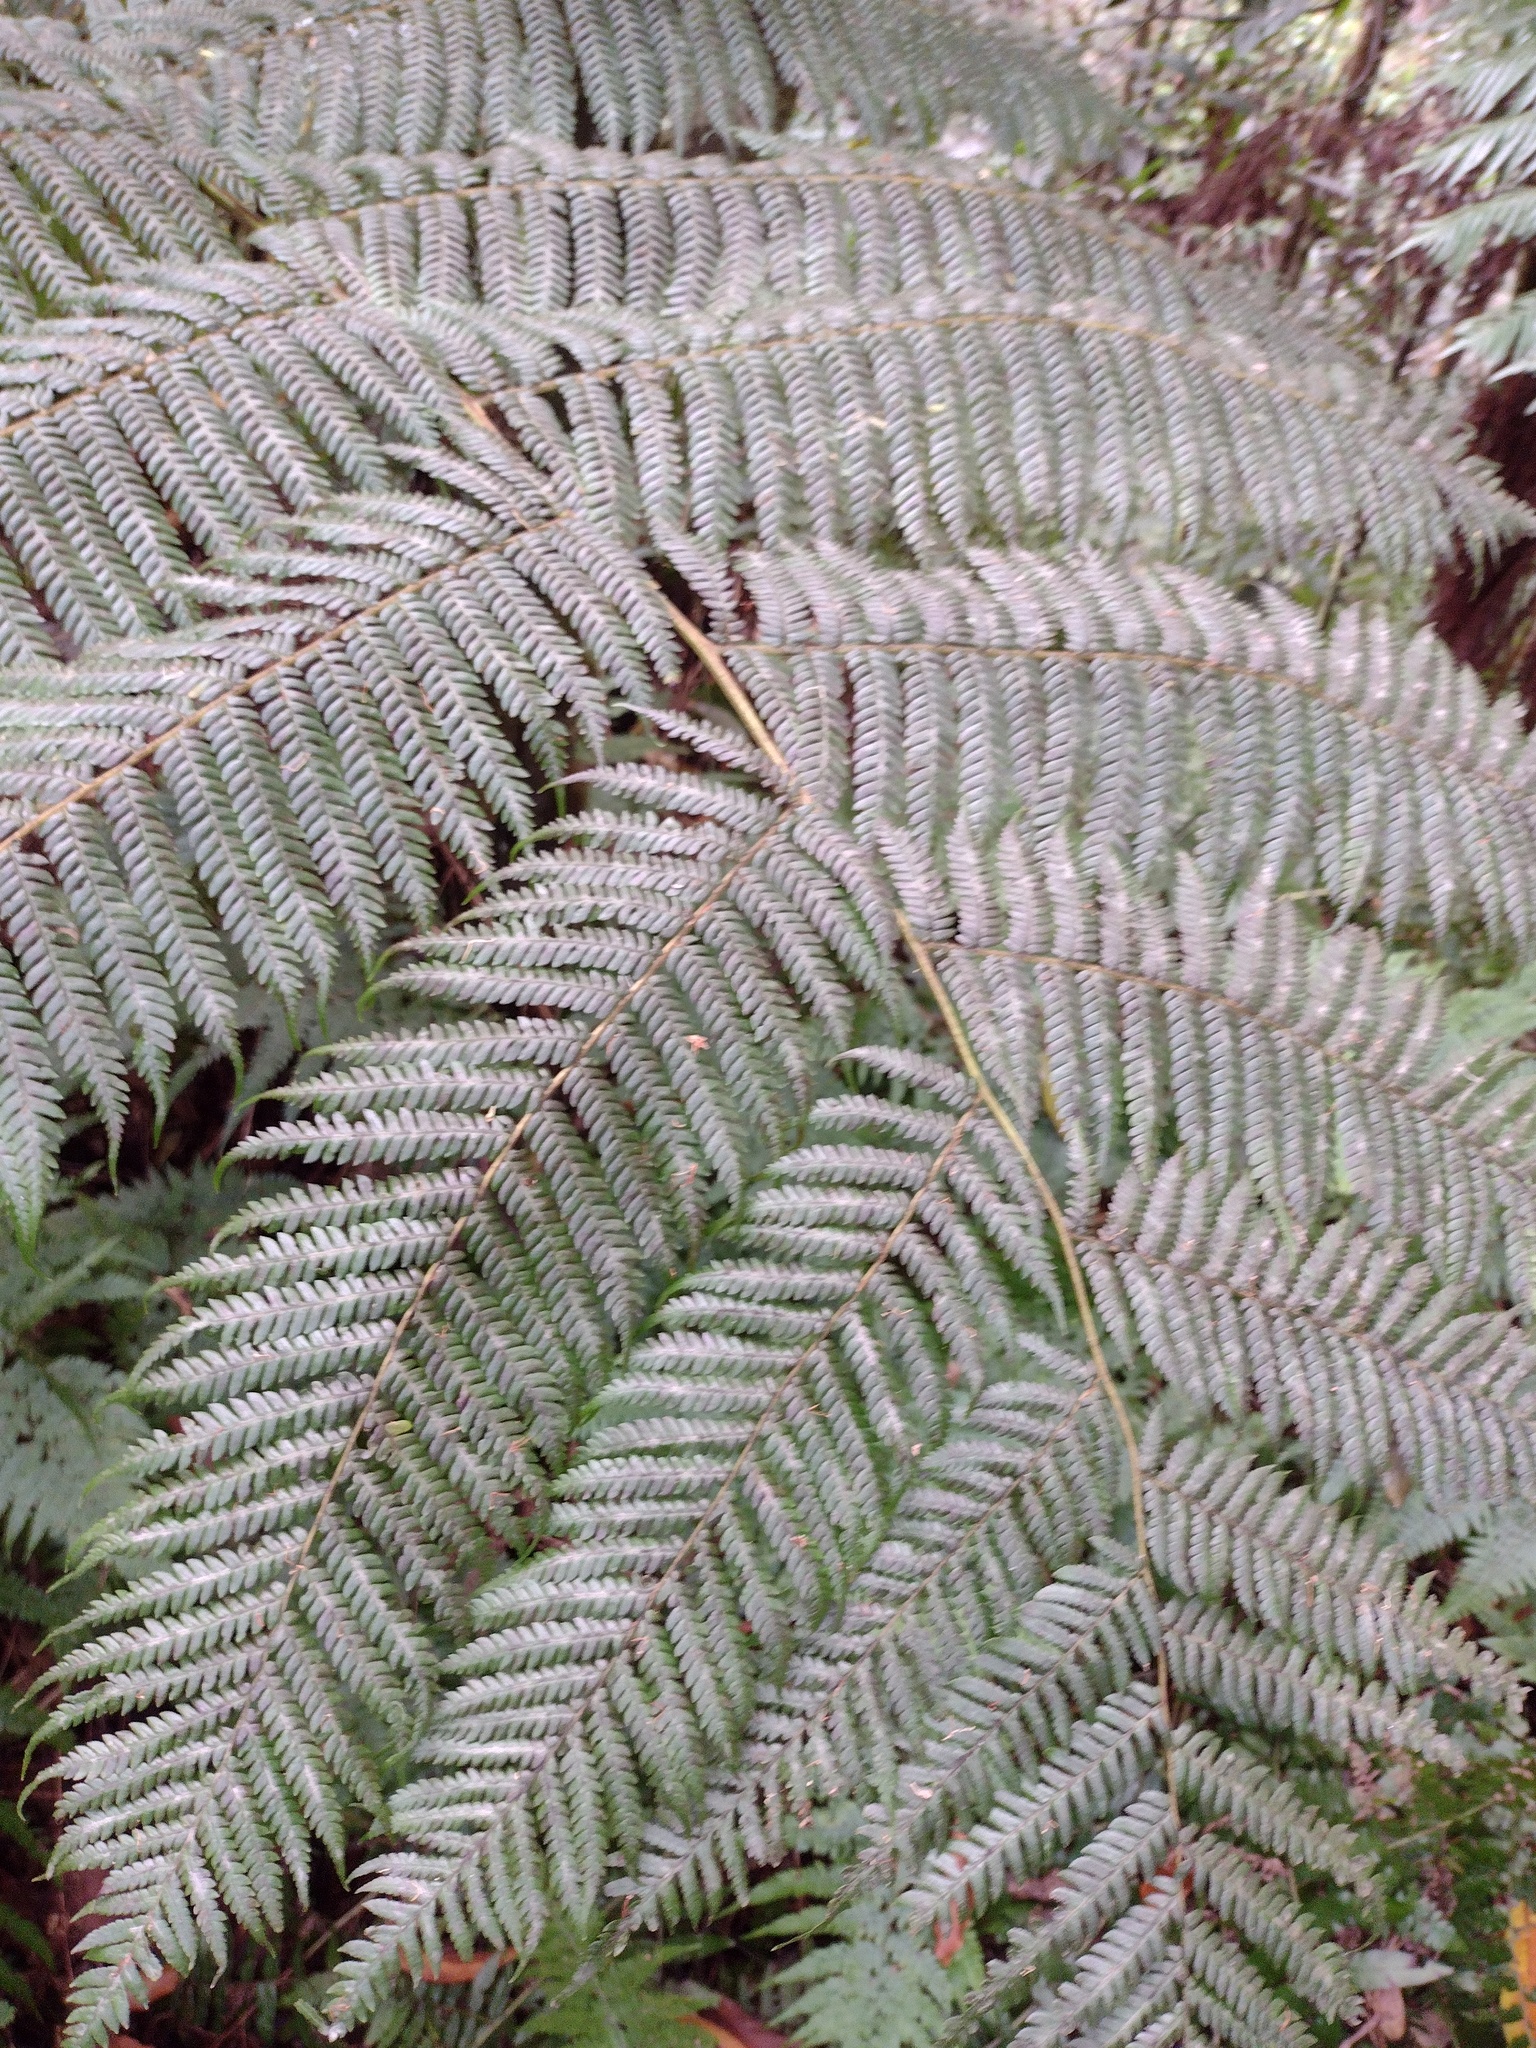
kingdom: Plantae
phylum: Tracheophyta
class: Polypodiopsida
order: Cyatheales
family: Cyatheaceae
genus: Sphaeropteris
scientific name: Sphaeropteris cooperi
